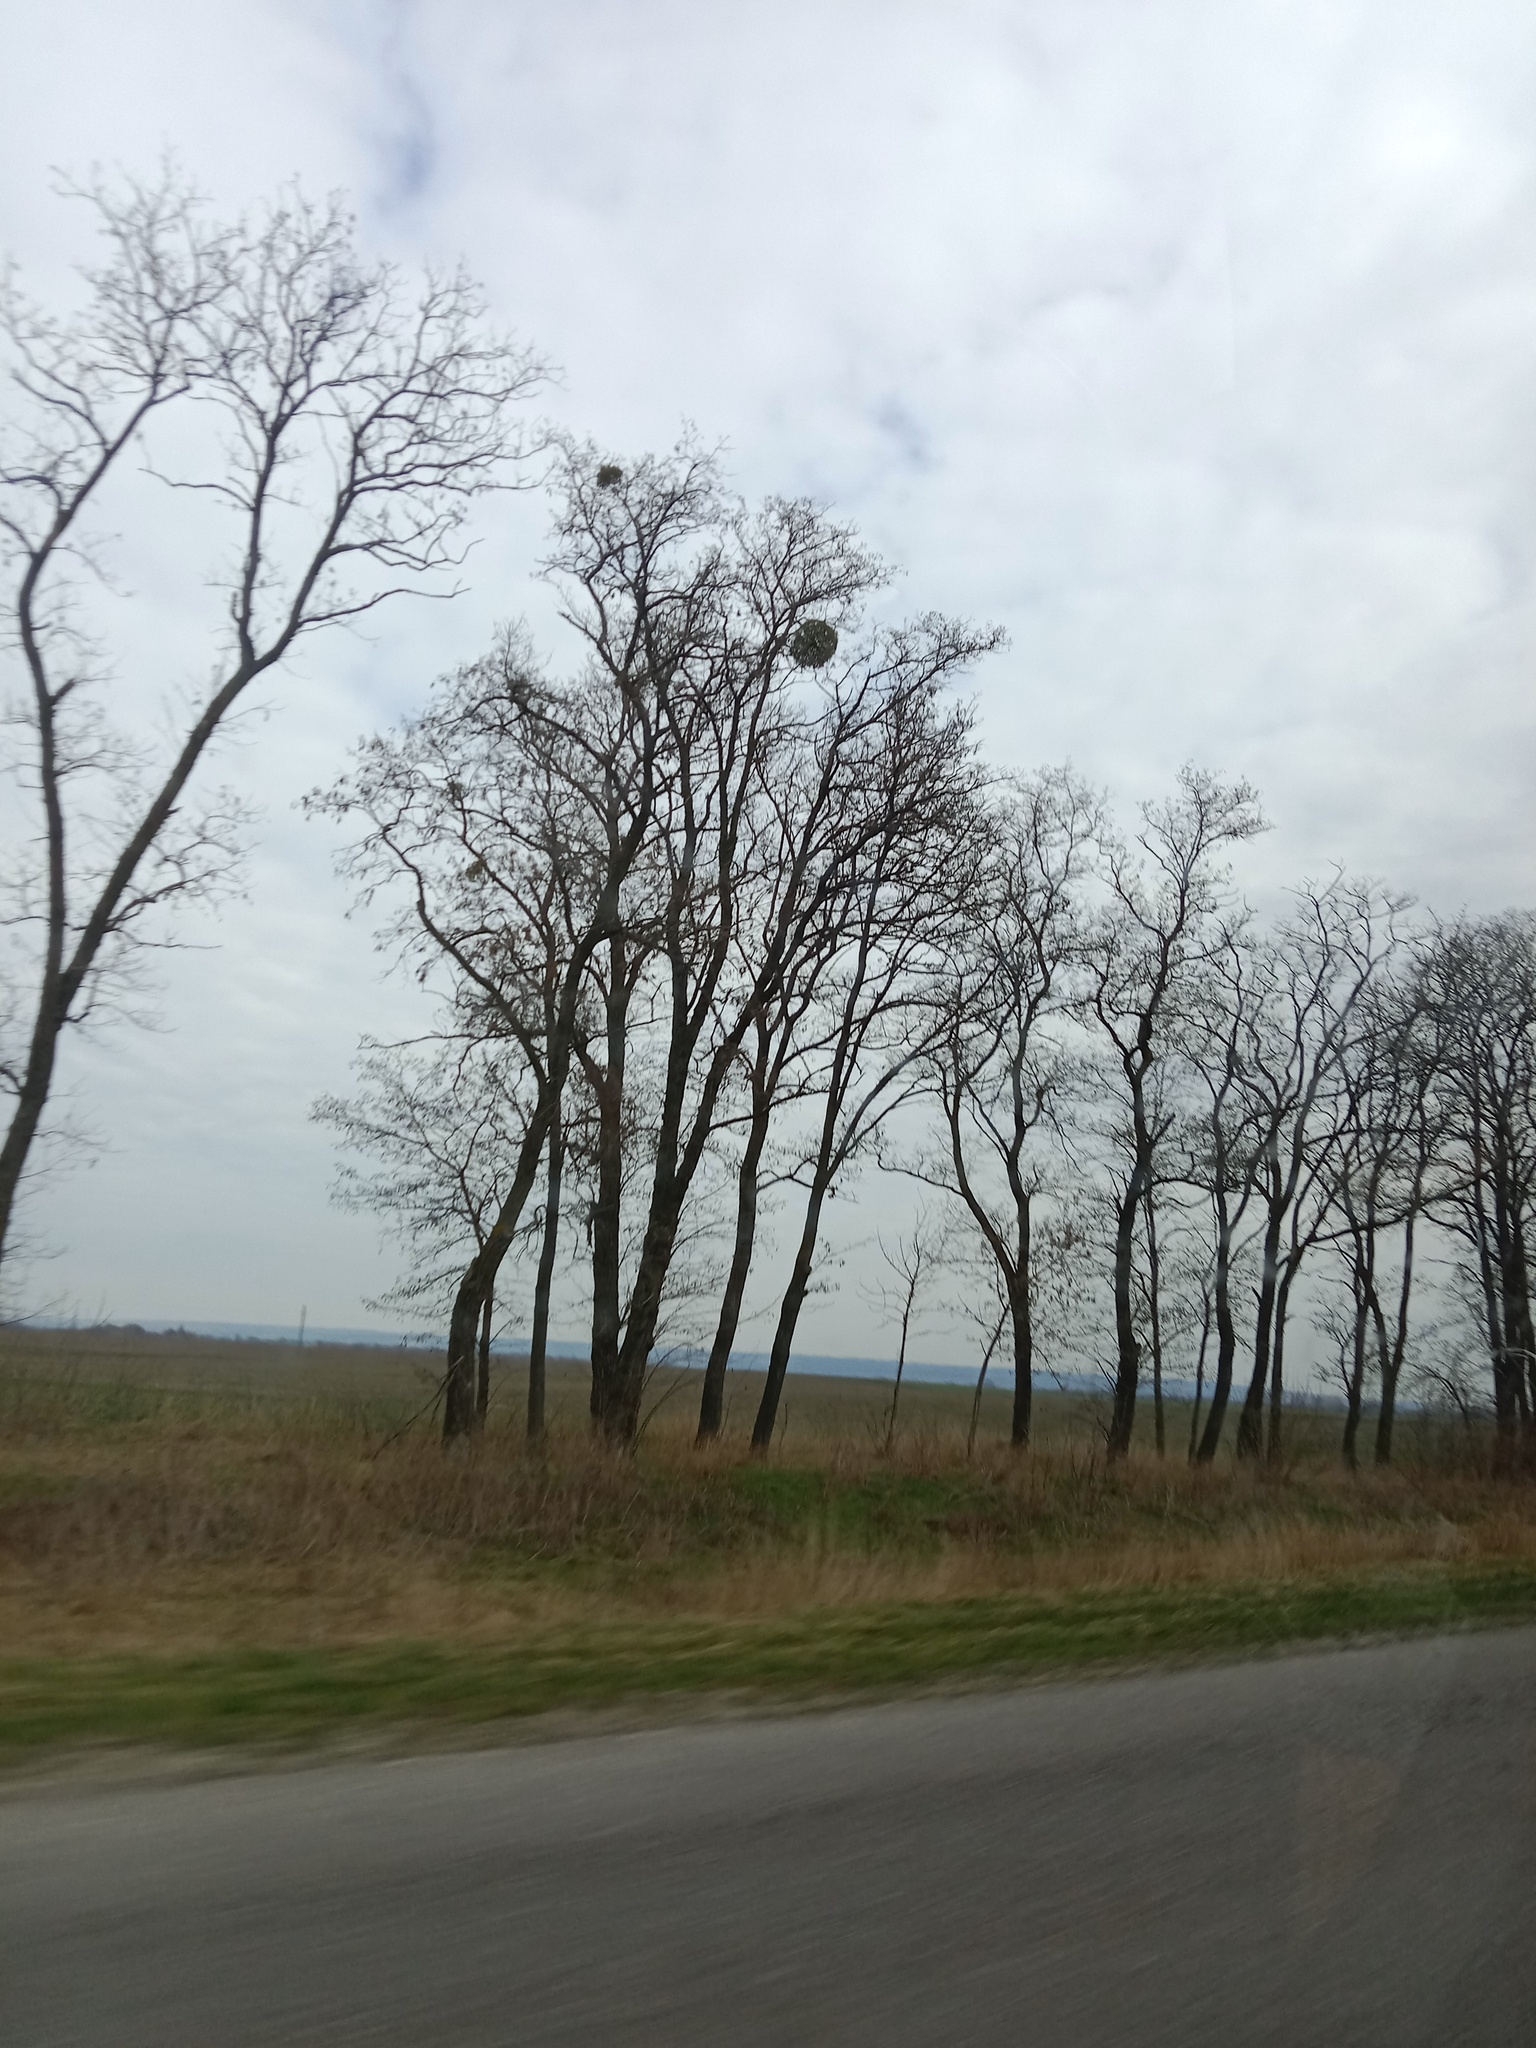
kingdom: Plantae
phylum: Tracheophyta
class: Magnoliopsida
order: Santalales
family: Viscaceae
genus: Viscum
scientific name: Viscum album
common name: Mistletoe
